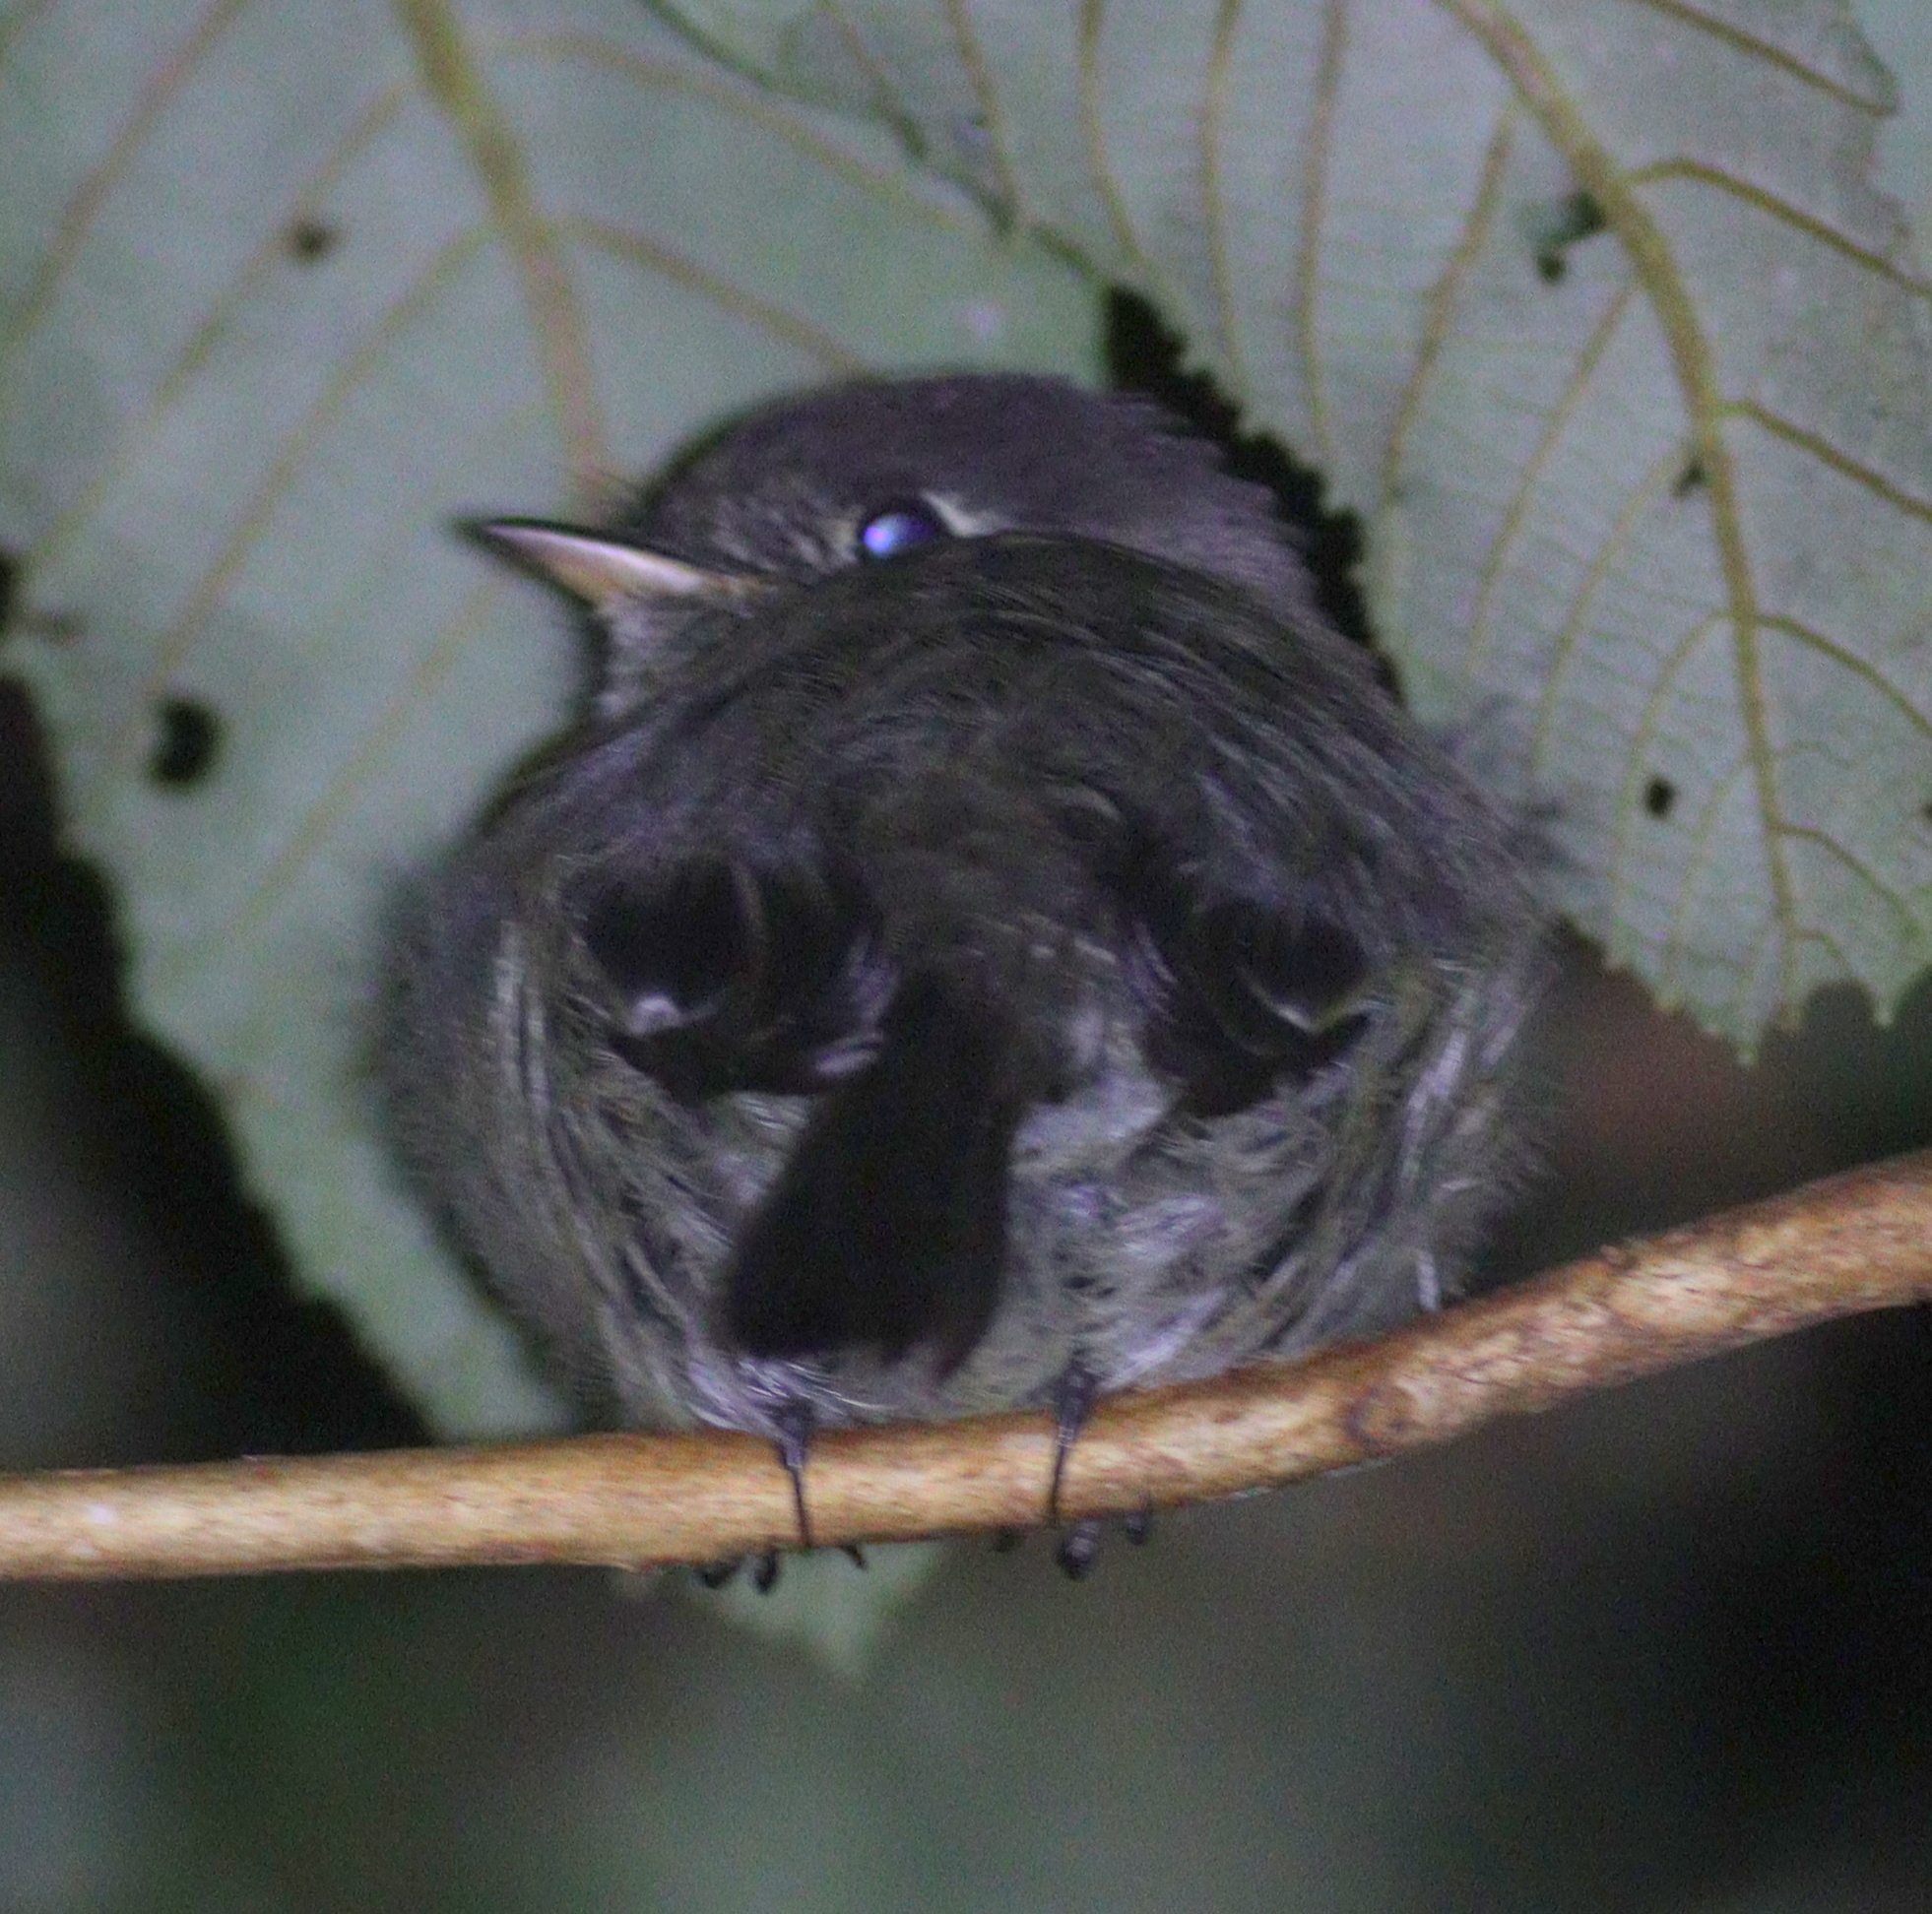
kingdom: Animalia
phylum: Chordata
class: Aves
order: Passeriformes
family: Tyrannidae
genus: Empidonax
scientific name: Empidonax atriceps
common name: Black-capped flycatcher
